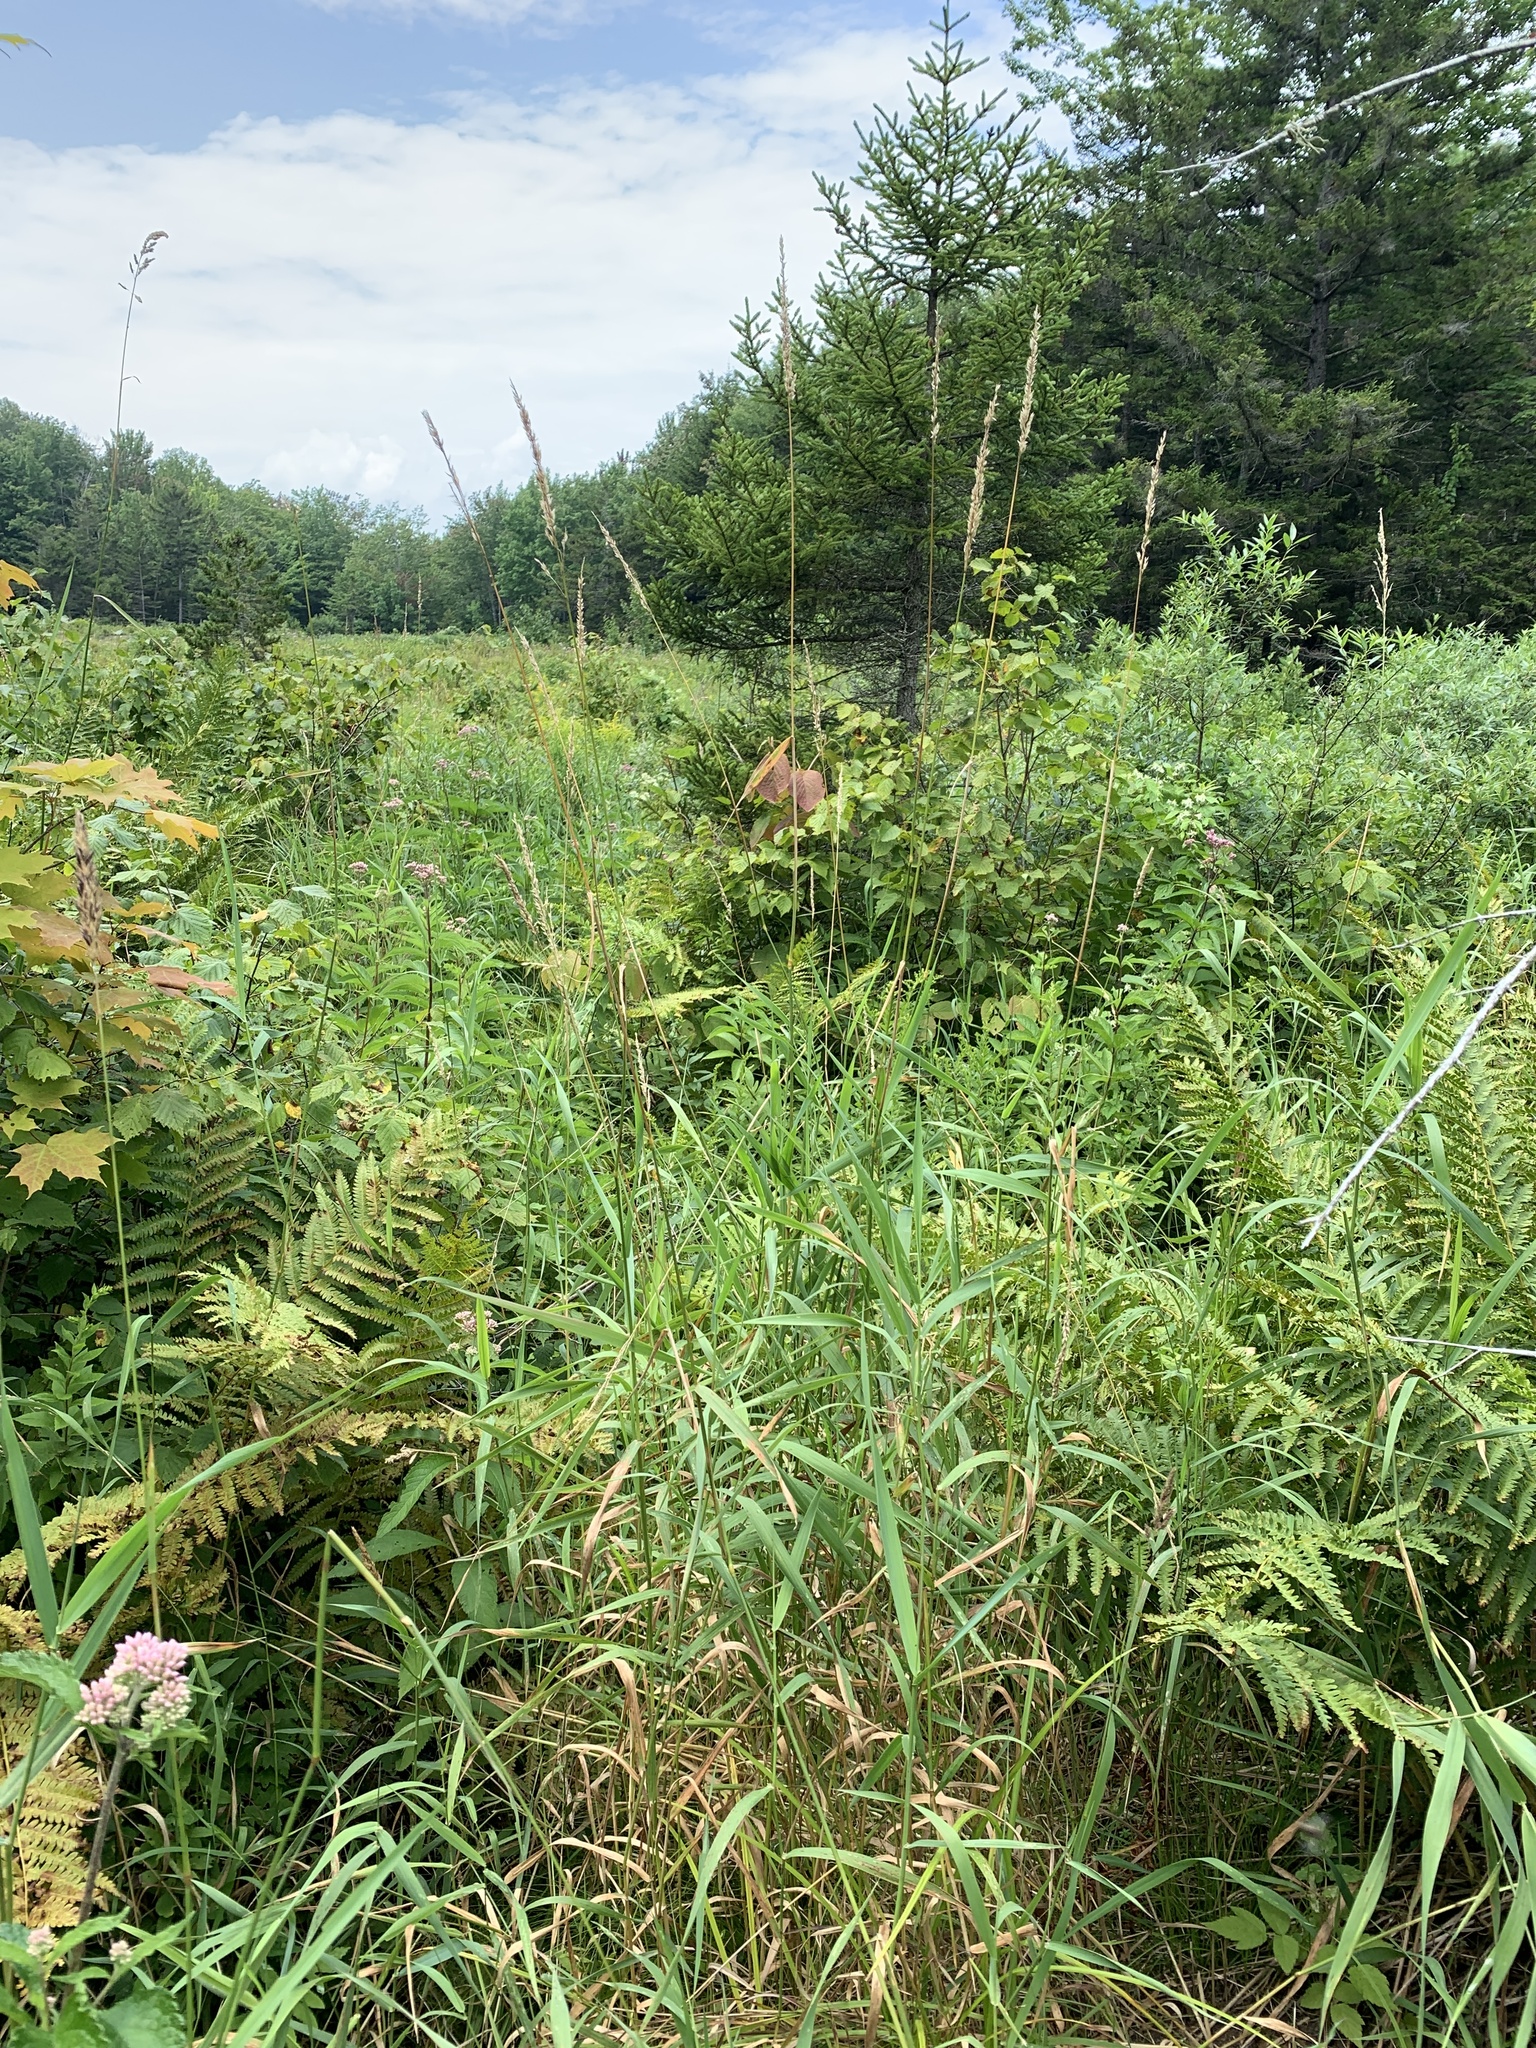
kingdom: Plantae
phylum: Tracheophyta
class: Liliopsida
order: Poales
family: Poaceae
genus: Phalaris
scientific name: Phalaris arundinacea
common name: Reed canary-grass
